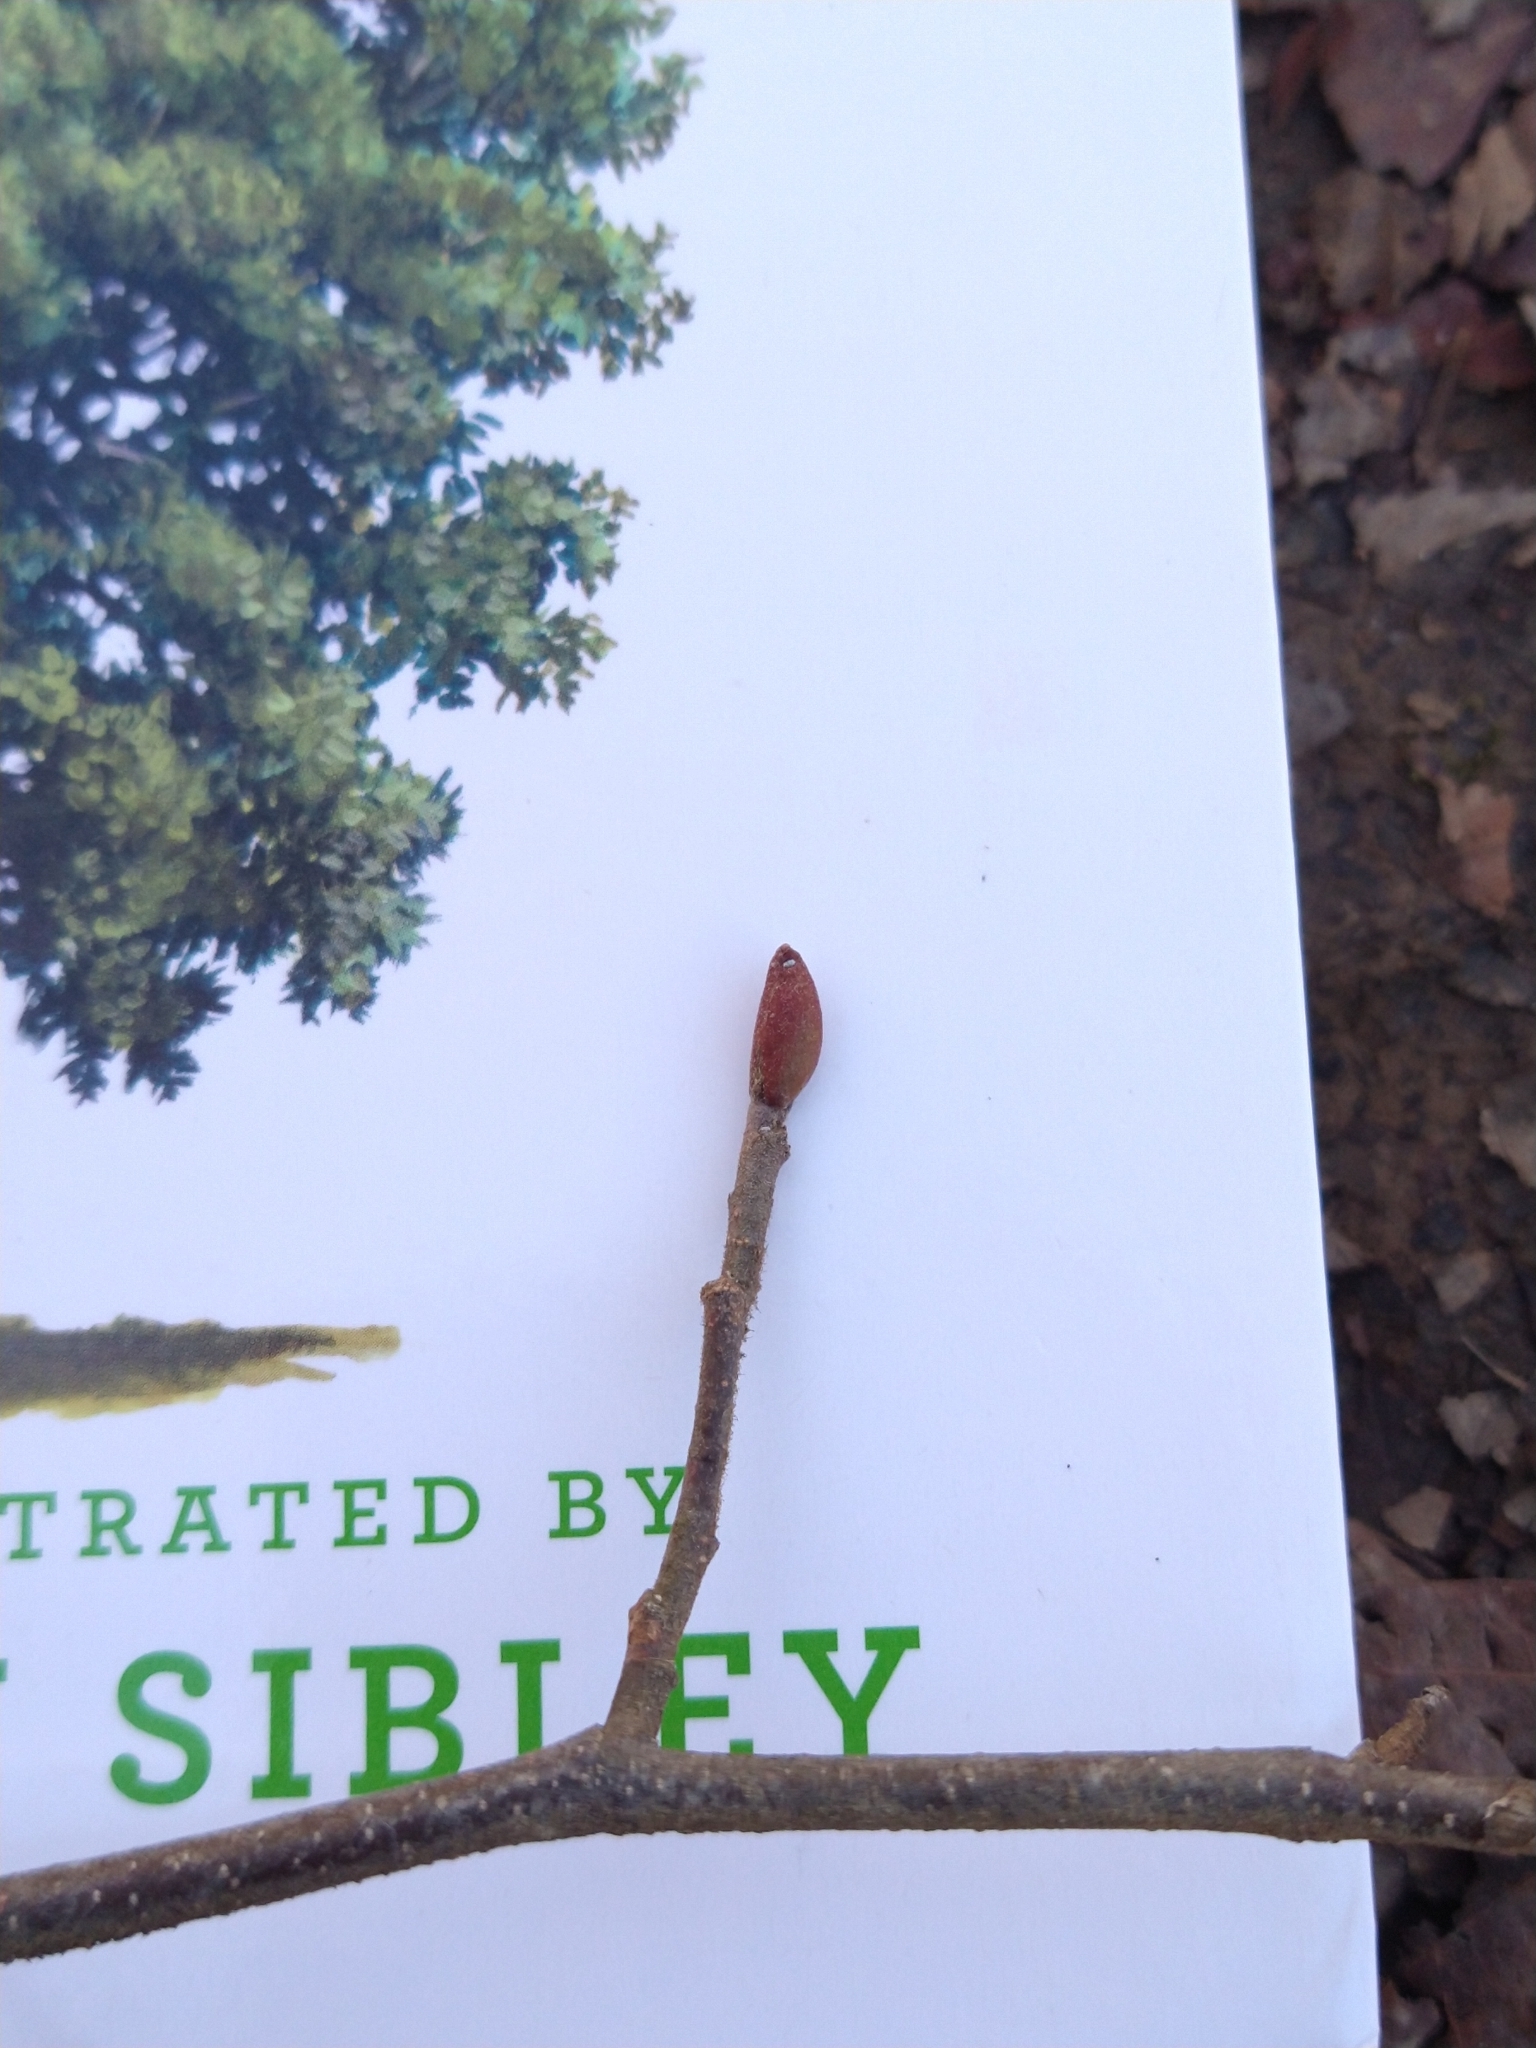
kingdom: Plantae
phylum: Tracheophyta
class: Magnoliopsida
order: Fagales
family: Betulaceae
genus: Alnus
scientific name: Alnus serrulata
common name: Hazel alder
